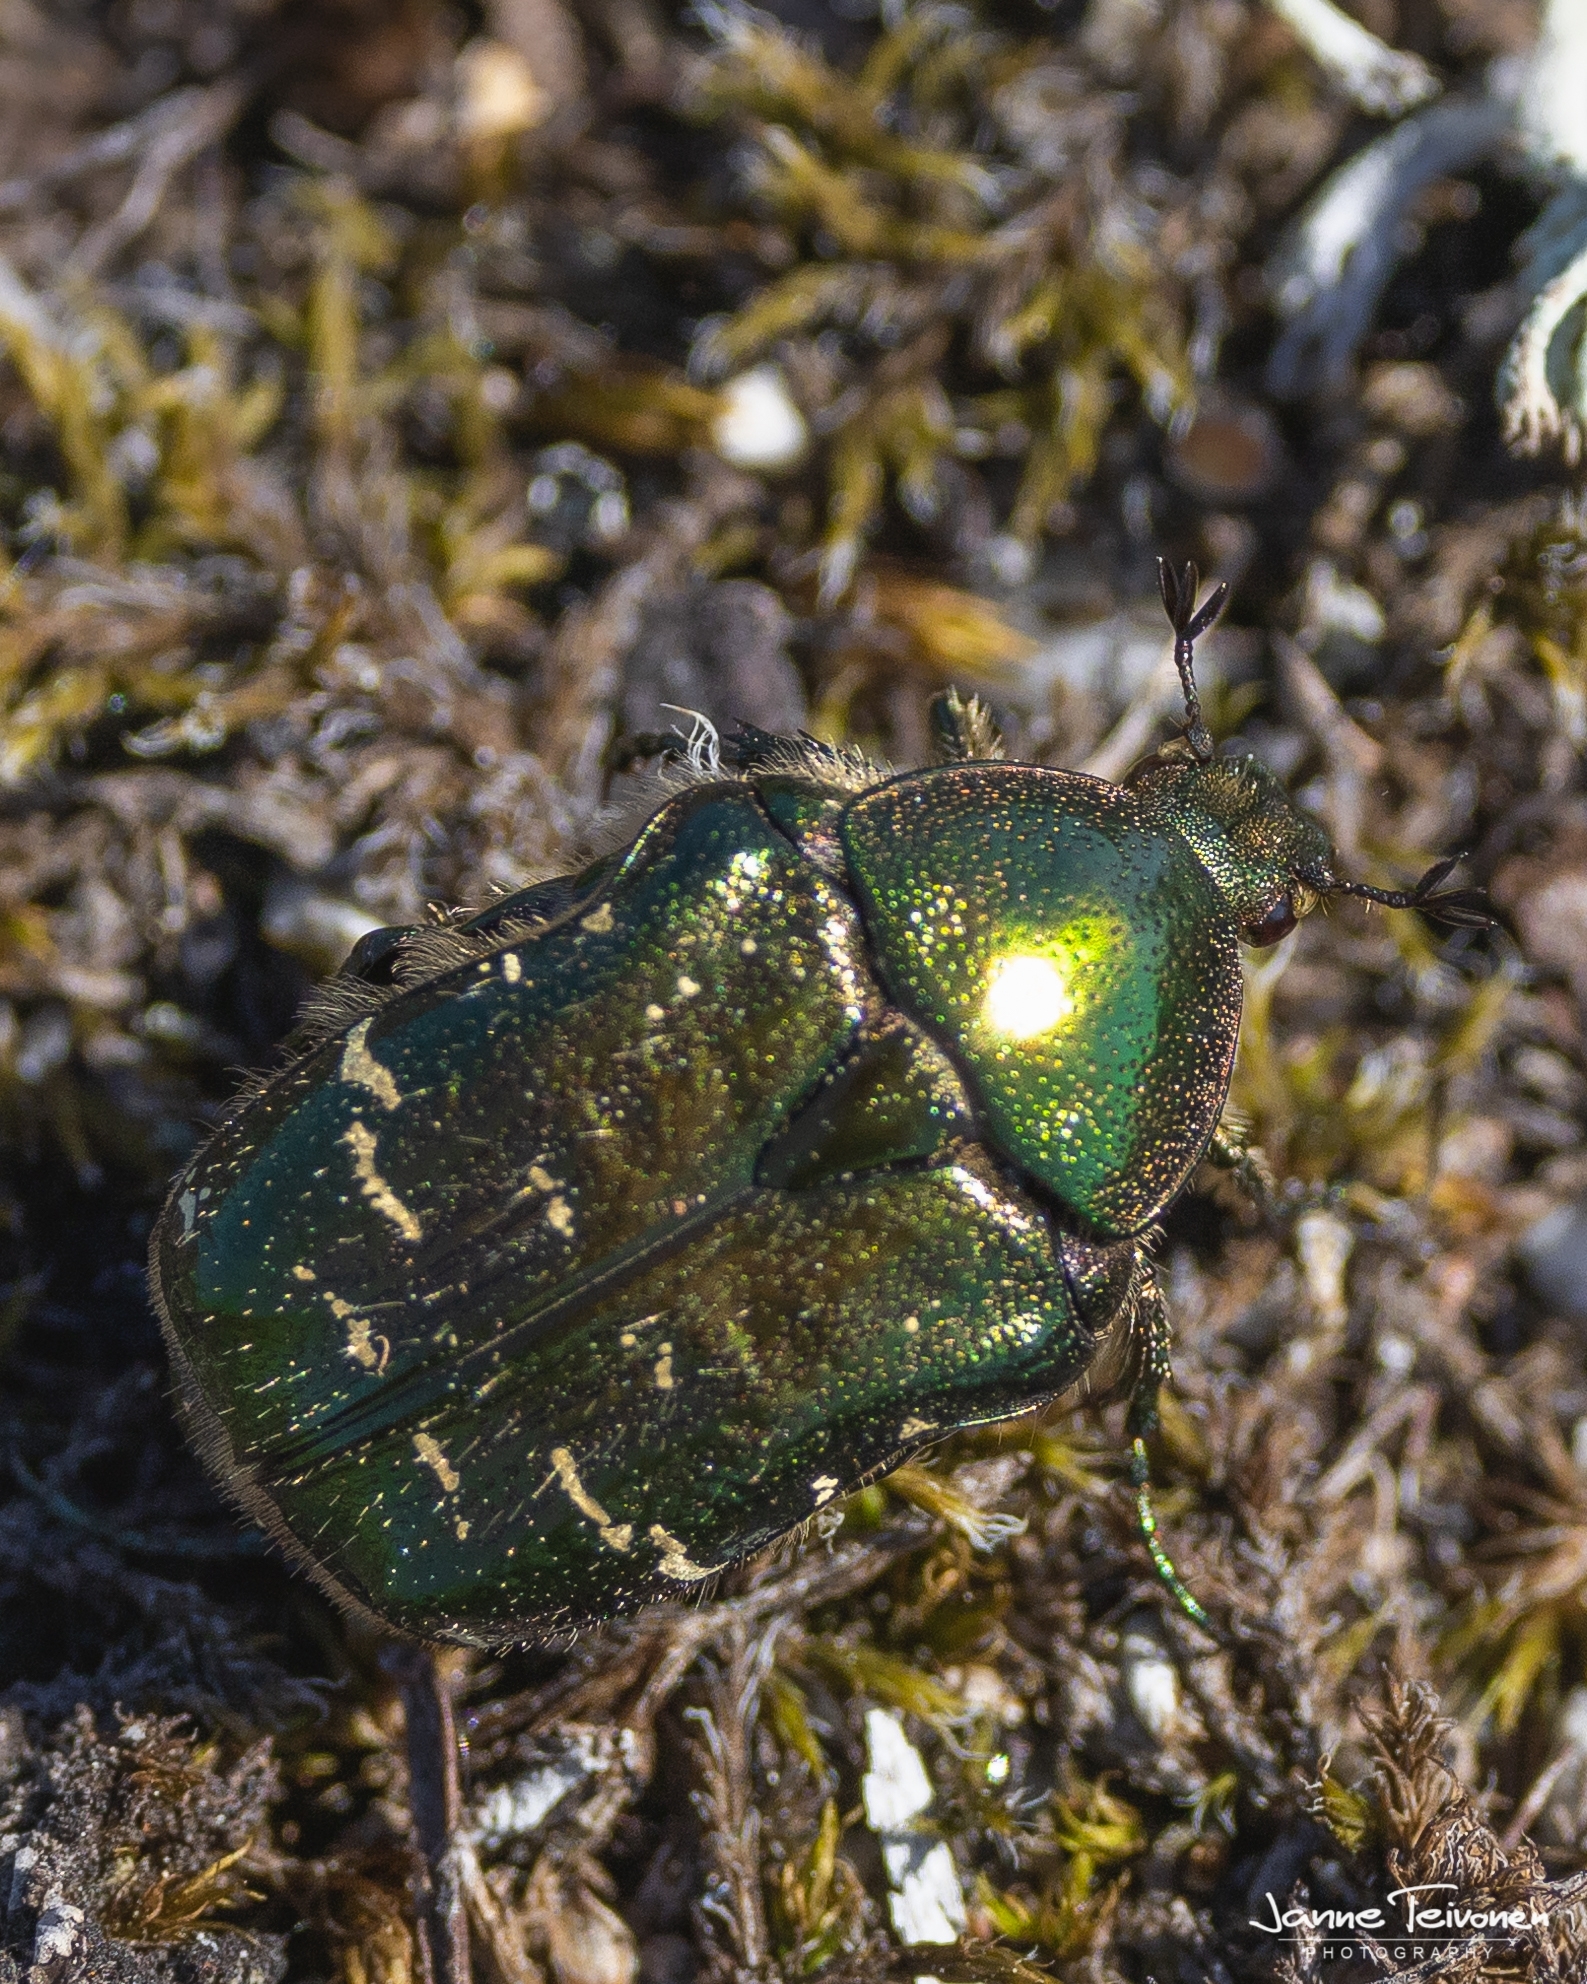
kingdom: Animalia
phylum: Arthropoda
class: Insecta
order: Coleoptera
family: Scarabaeidae
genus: Cetonia
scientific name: Cetonia aurata
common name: Rose chafer
